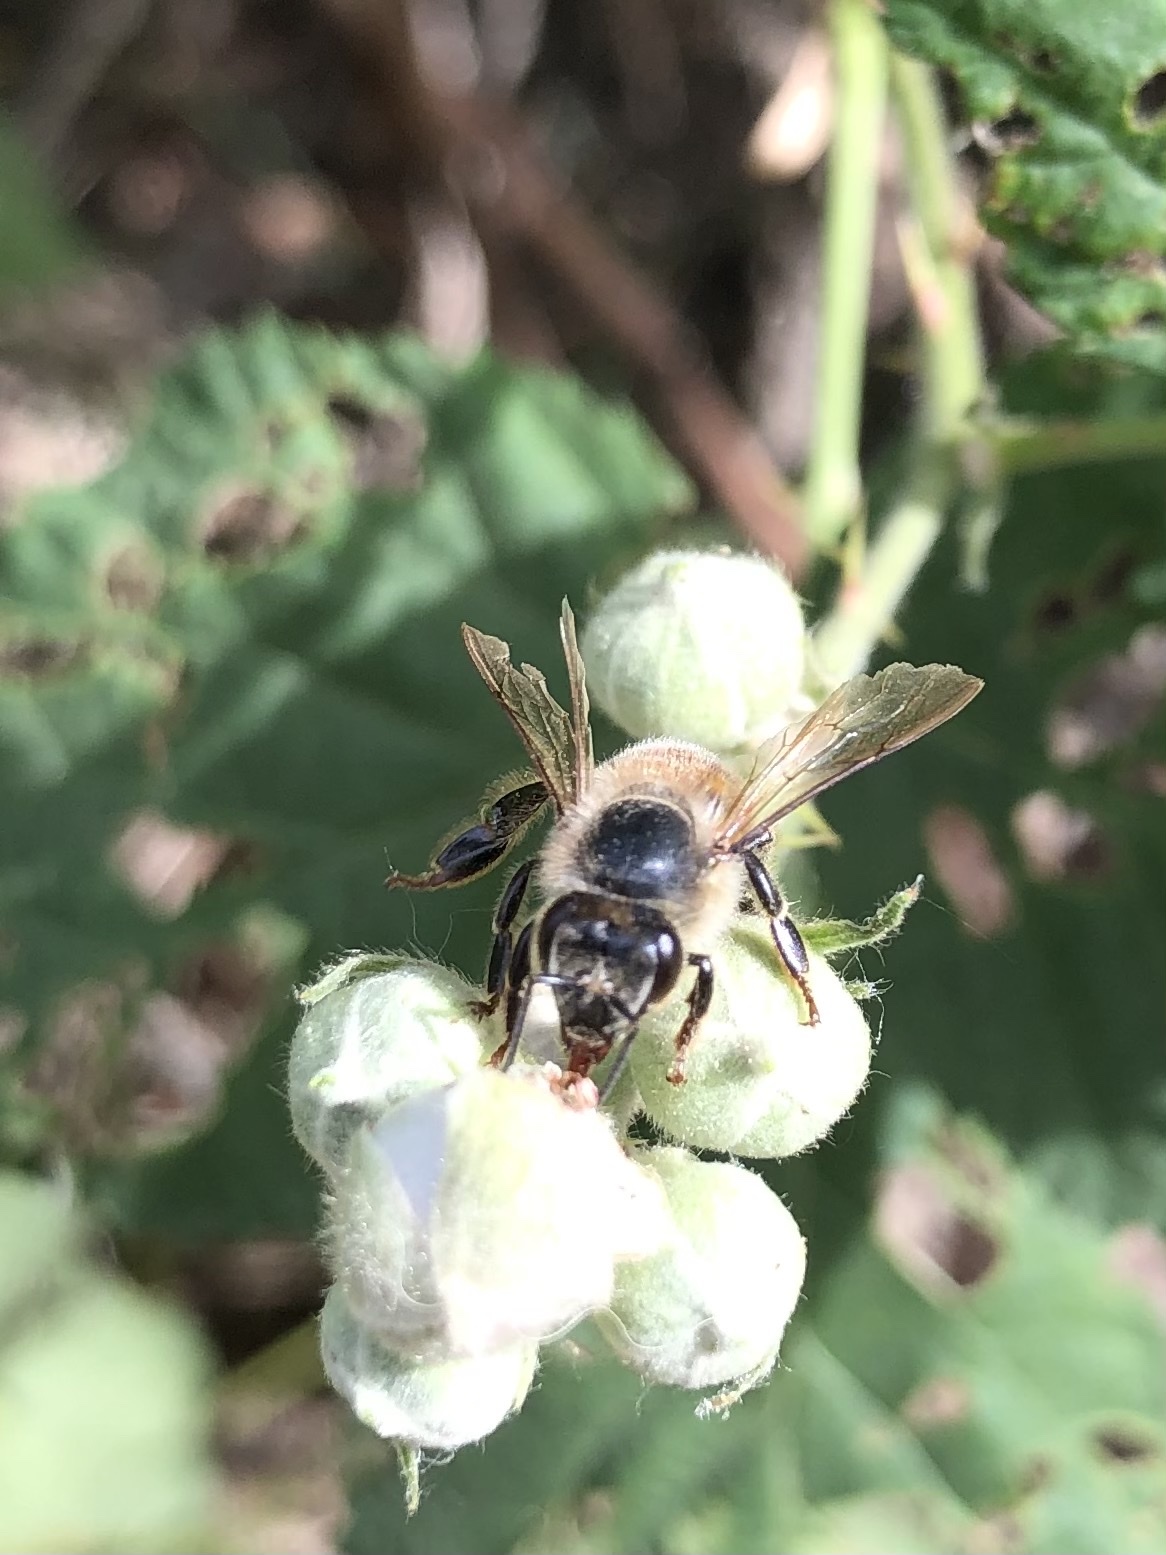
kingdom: Animalia
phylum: Arthropoda
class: Insecta
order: Hymenoptera
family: Apidae
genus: Apis
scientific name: Apis mellifera
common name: Honey bee
